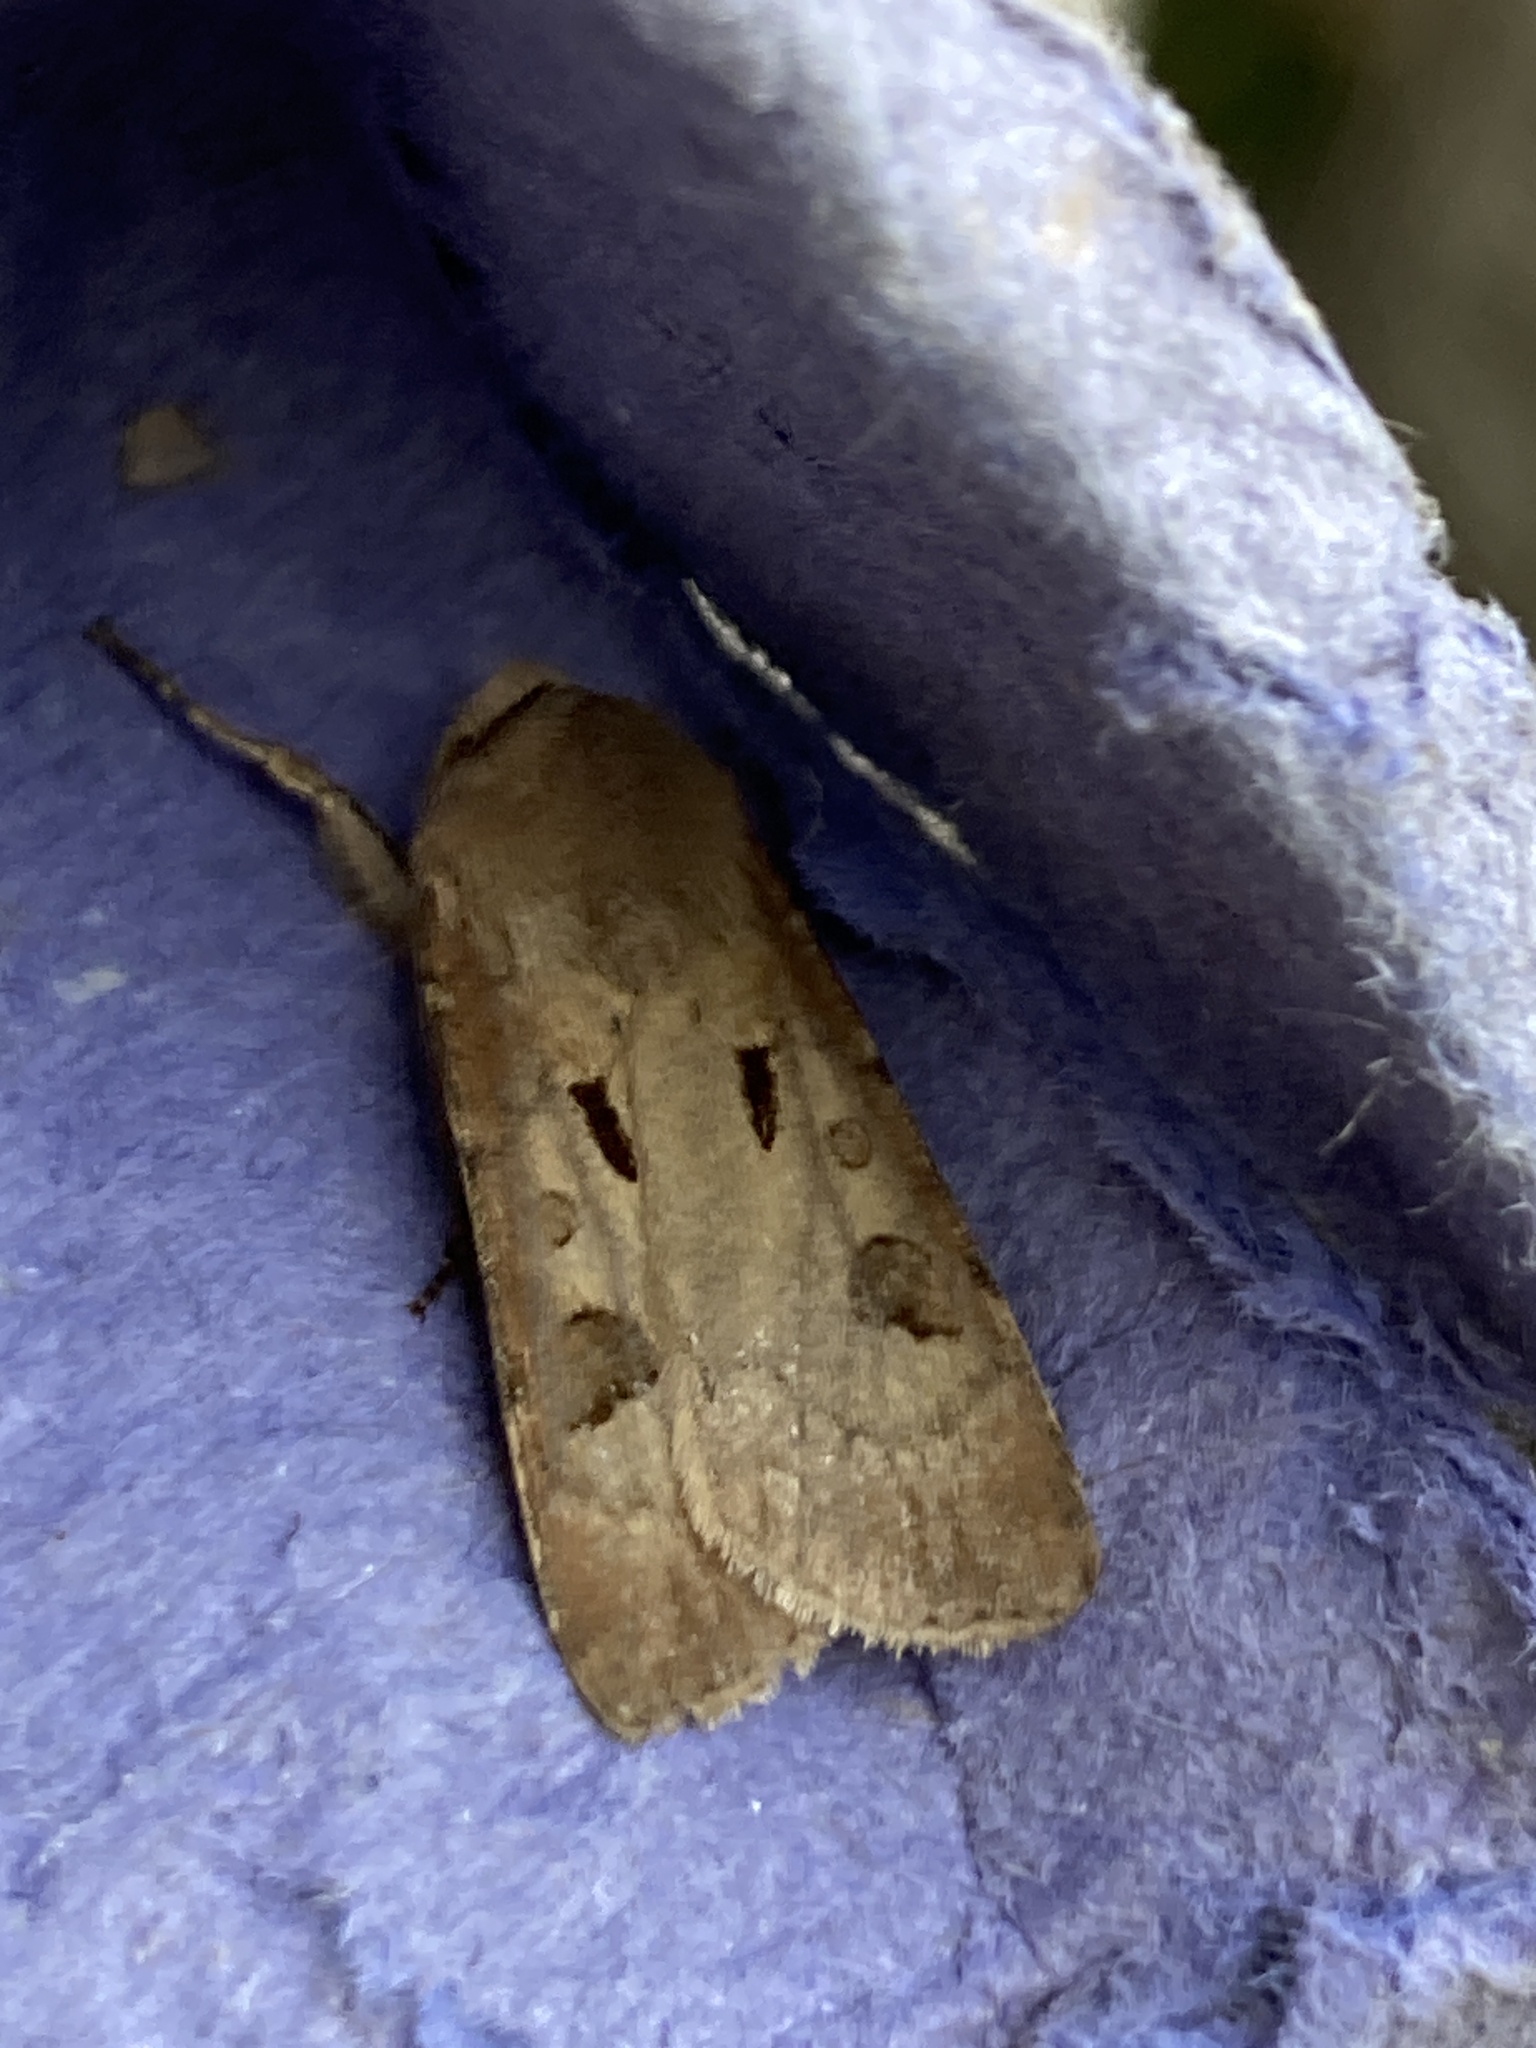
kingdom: Animalia
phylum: Arthropoda
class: Insecta
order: Lepidoptera
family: Noctuidae
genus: Agrotis
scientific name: Agrotis exclamationis
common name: Heart and dart
